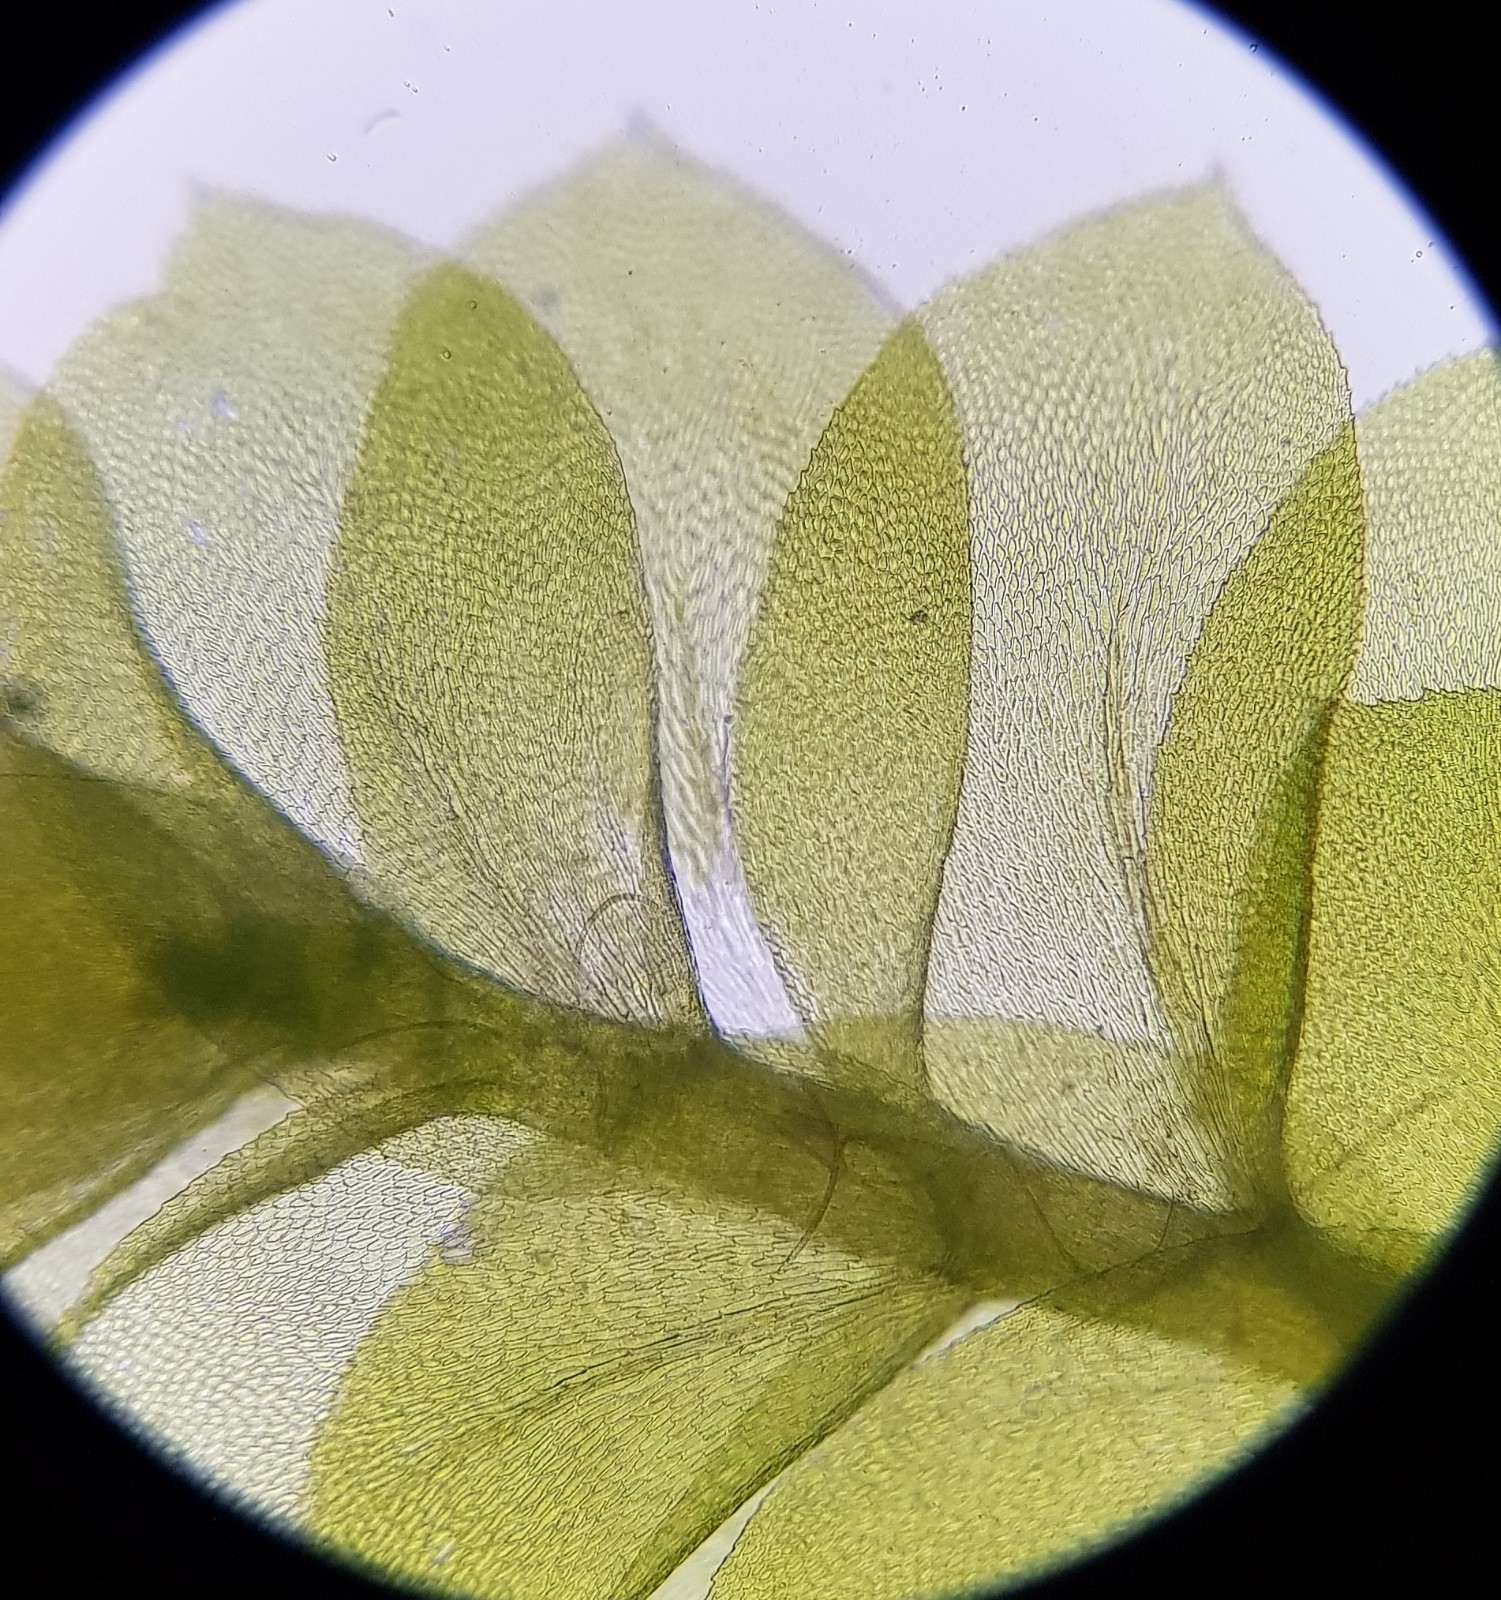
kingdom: Plantae
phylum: Bryophyta
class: Bryopsida
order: Hypnales
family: Neckeraceae
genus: Homalia
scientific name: Homalia trichomanoides
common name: Lime homalia moss
